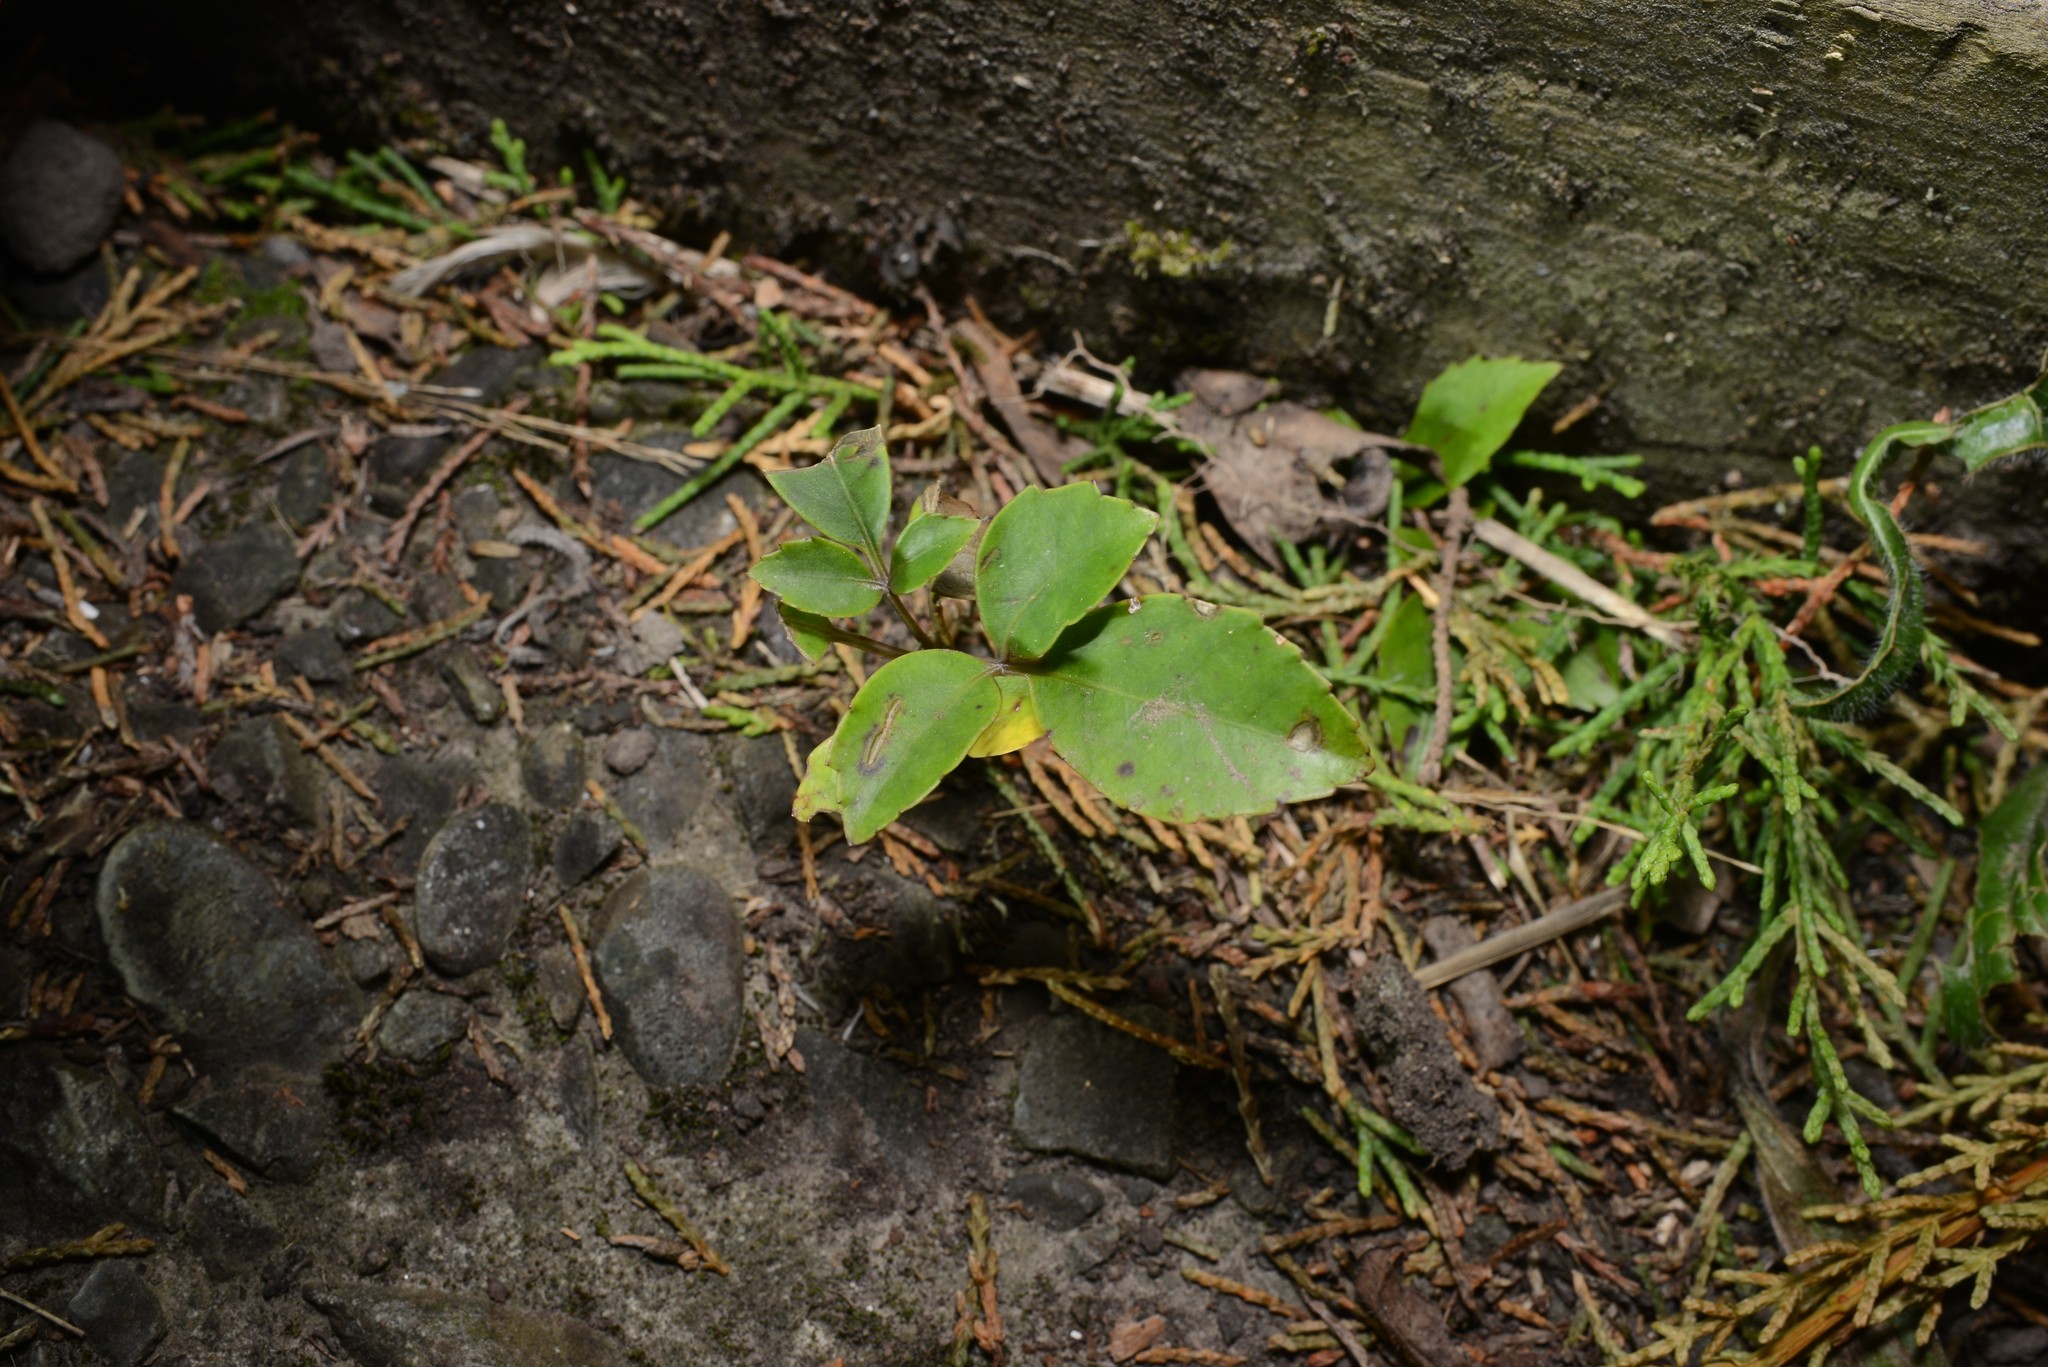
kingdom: Plantae
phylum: Tracheophyta
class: Magnoliopsida
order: Apiales
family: Araliaceae
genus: Neopanax
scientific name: Neopanax arboreus
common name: Five-fingers
